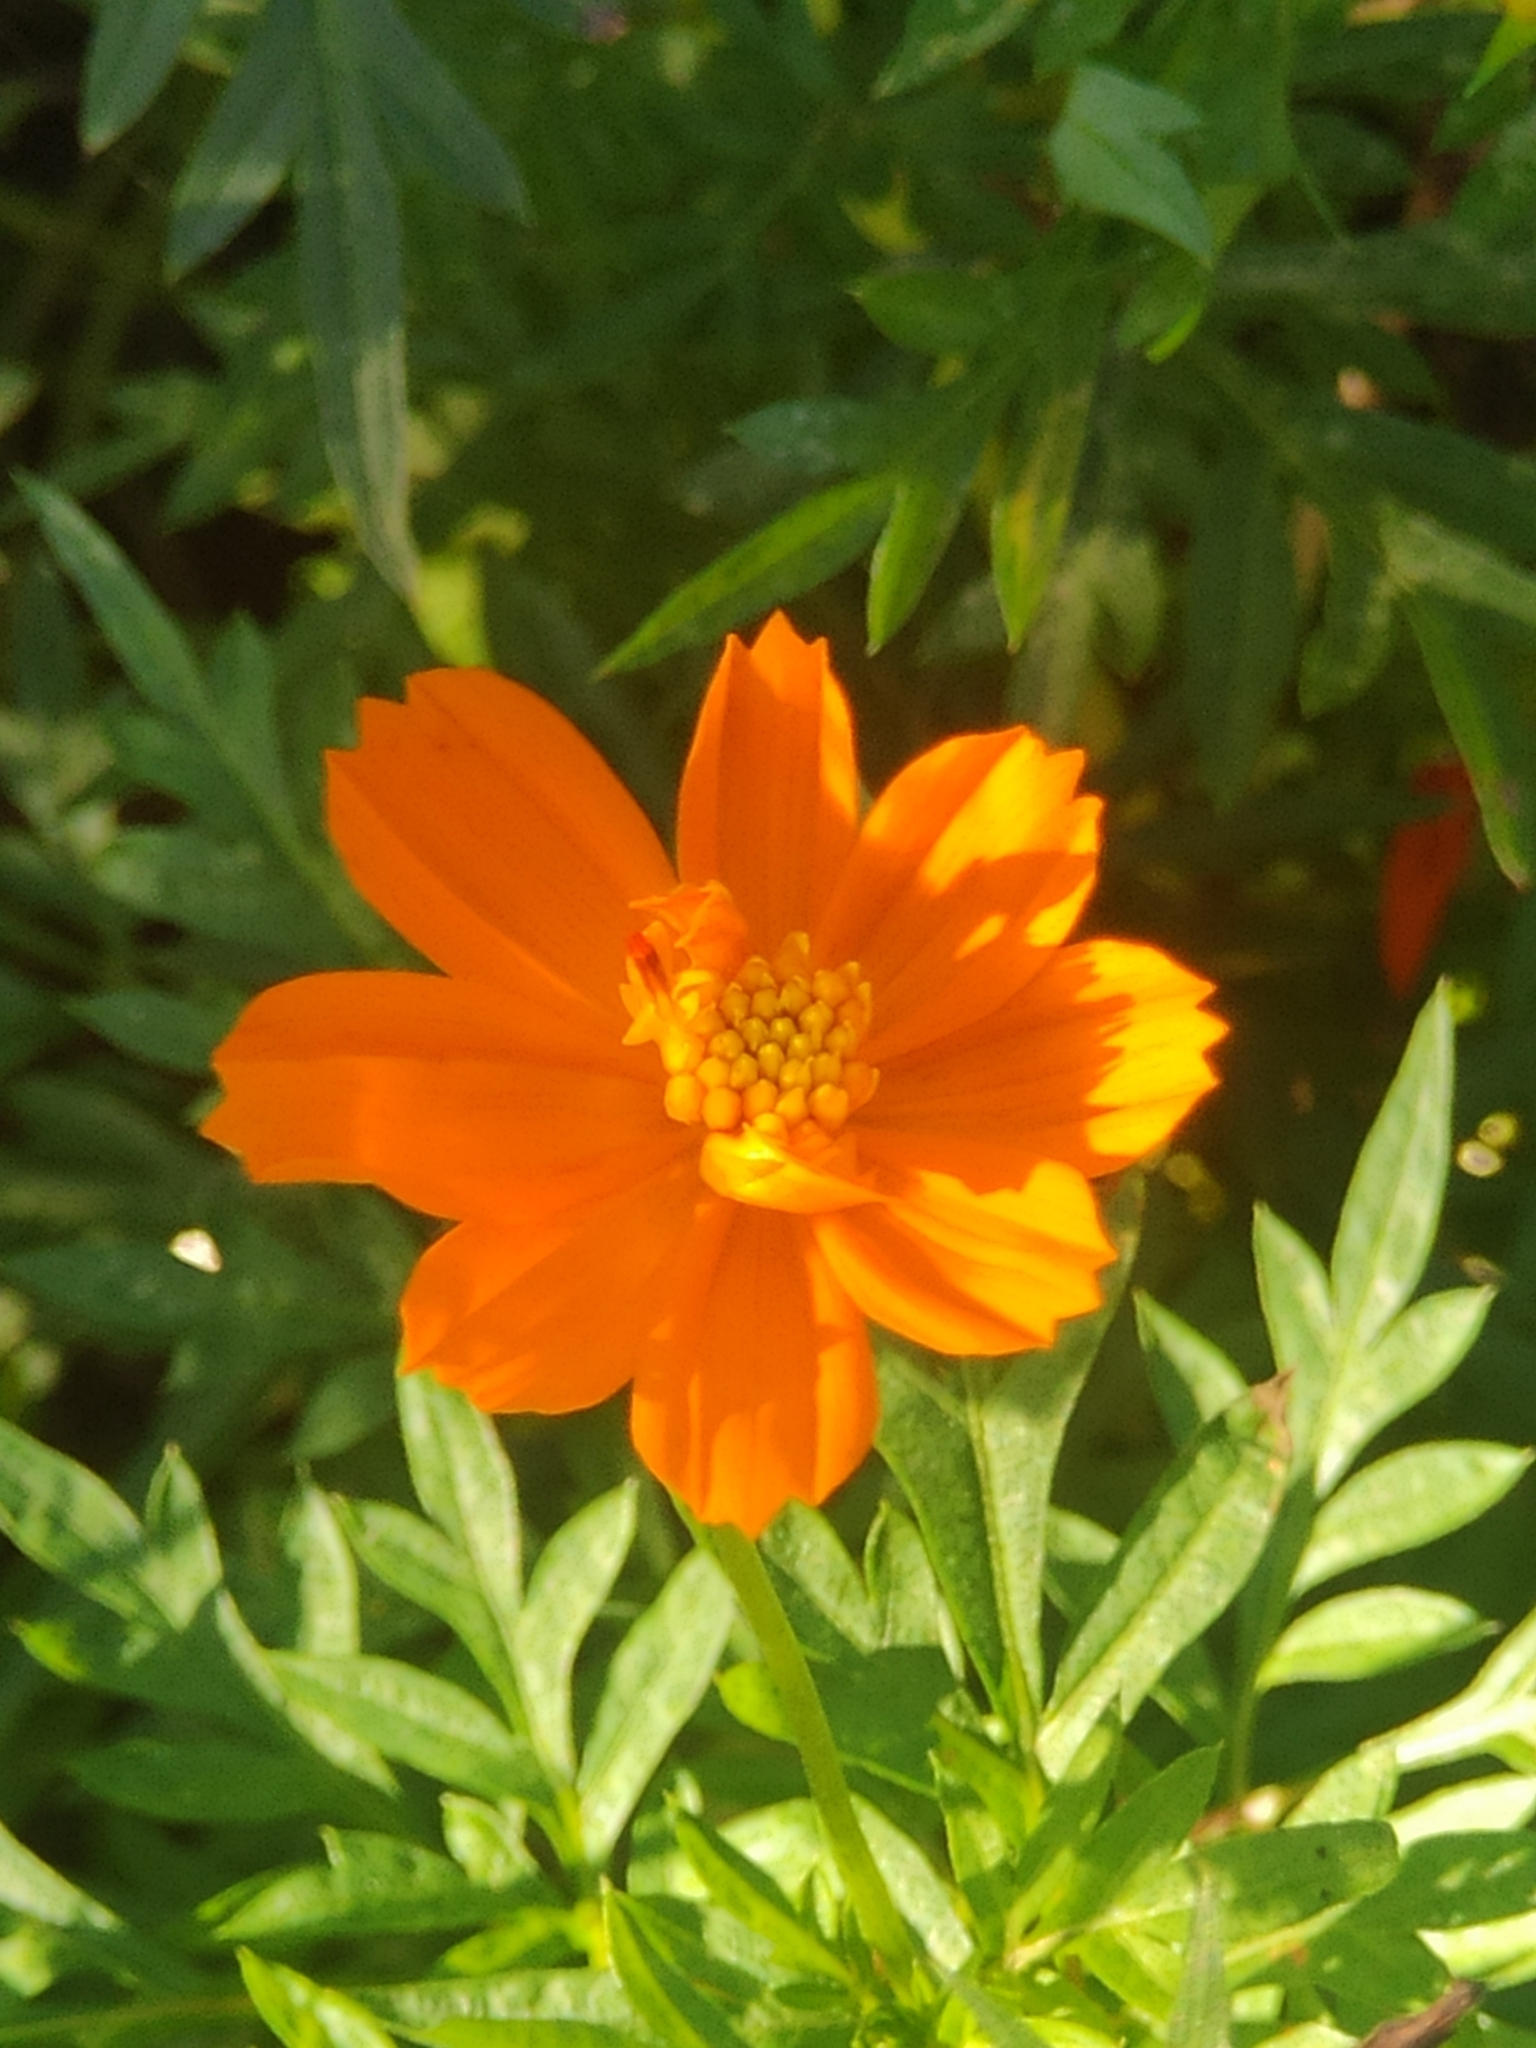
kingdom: Plantae
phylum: Tracheophyta
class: Magnoliopsida
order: Asterales
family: Asteraceae
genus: Cosmos
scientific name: Cosmos sulphureus
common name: Sulphur cosmos
